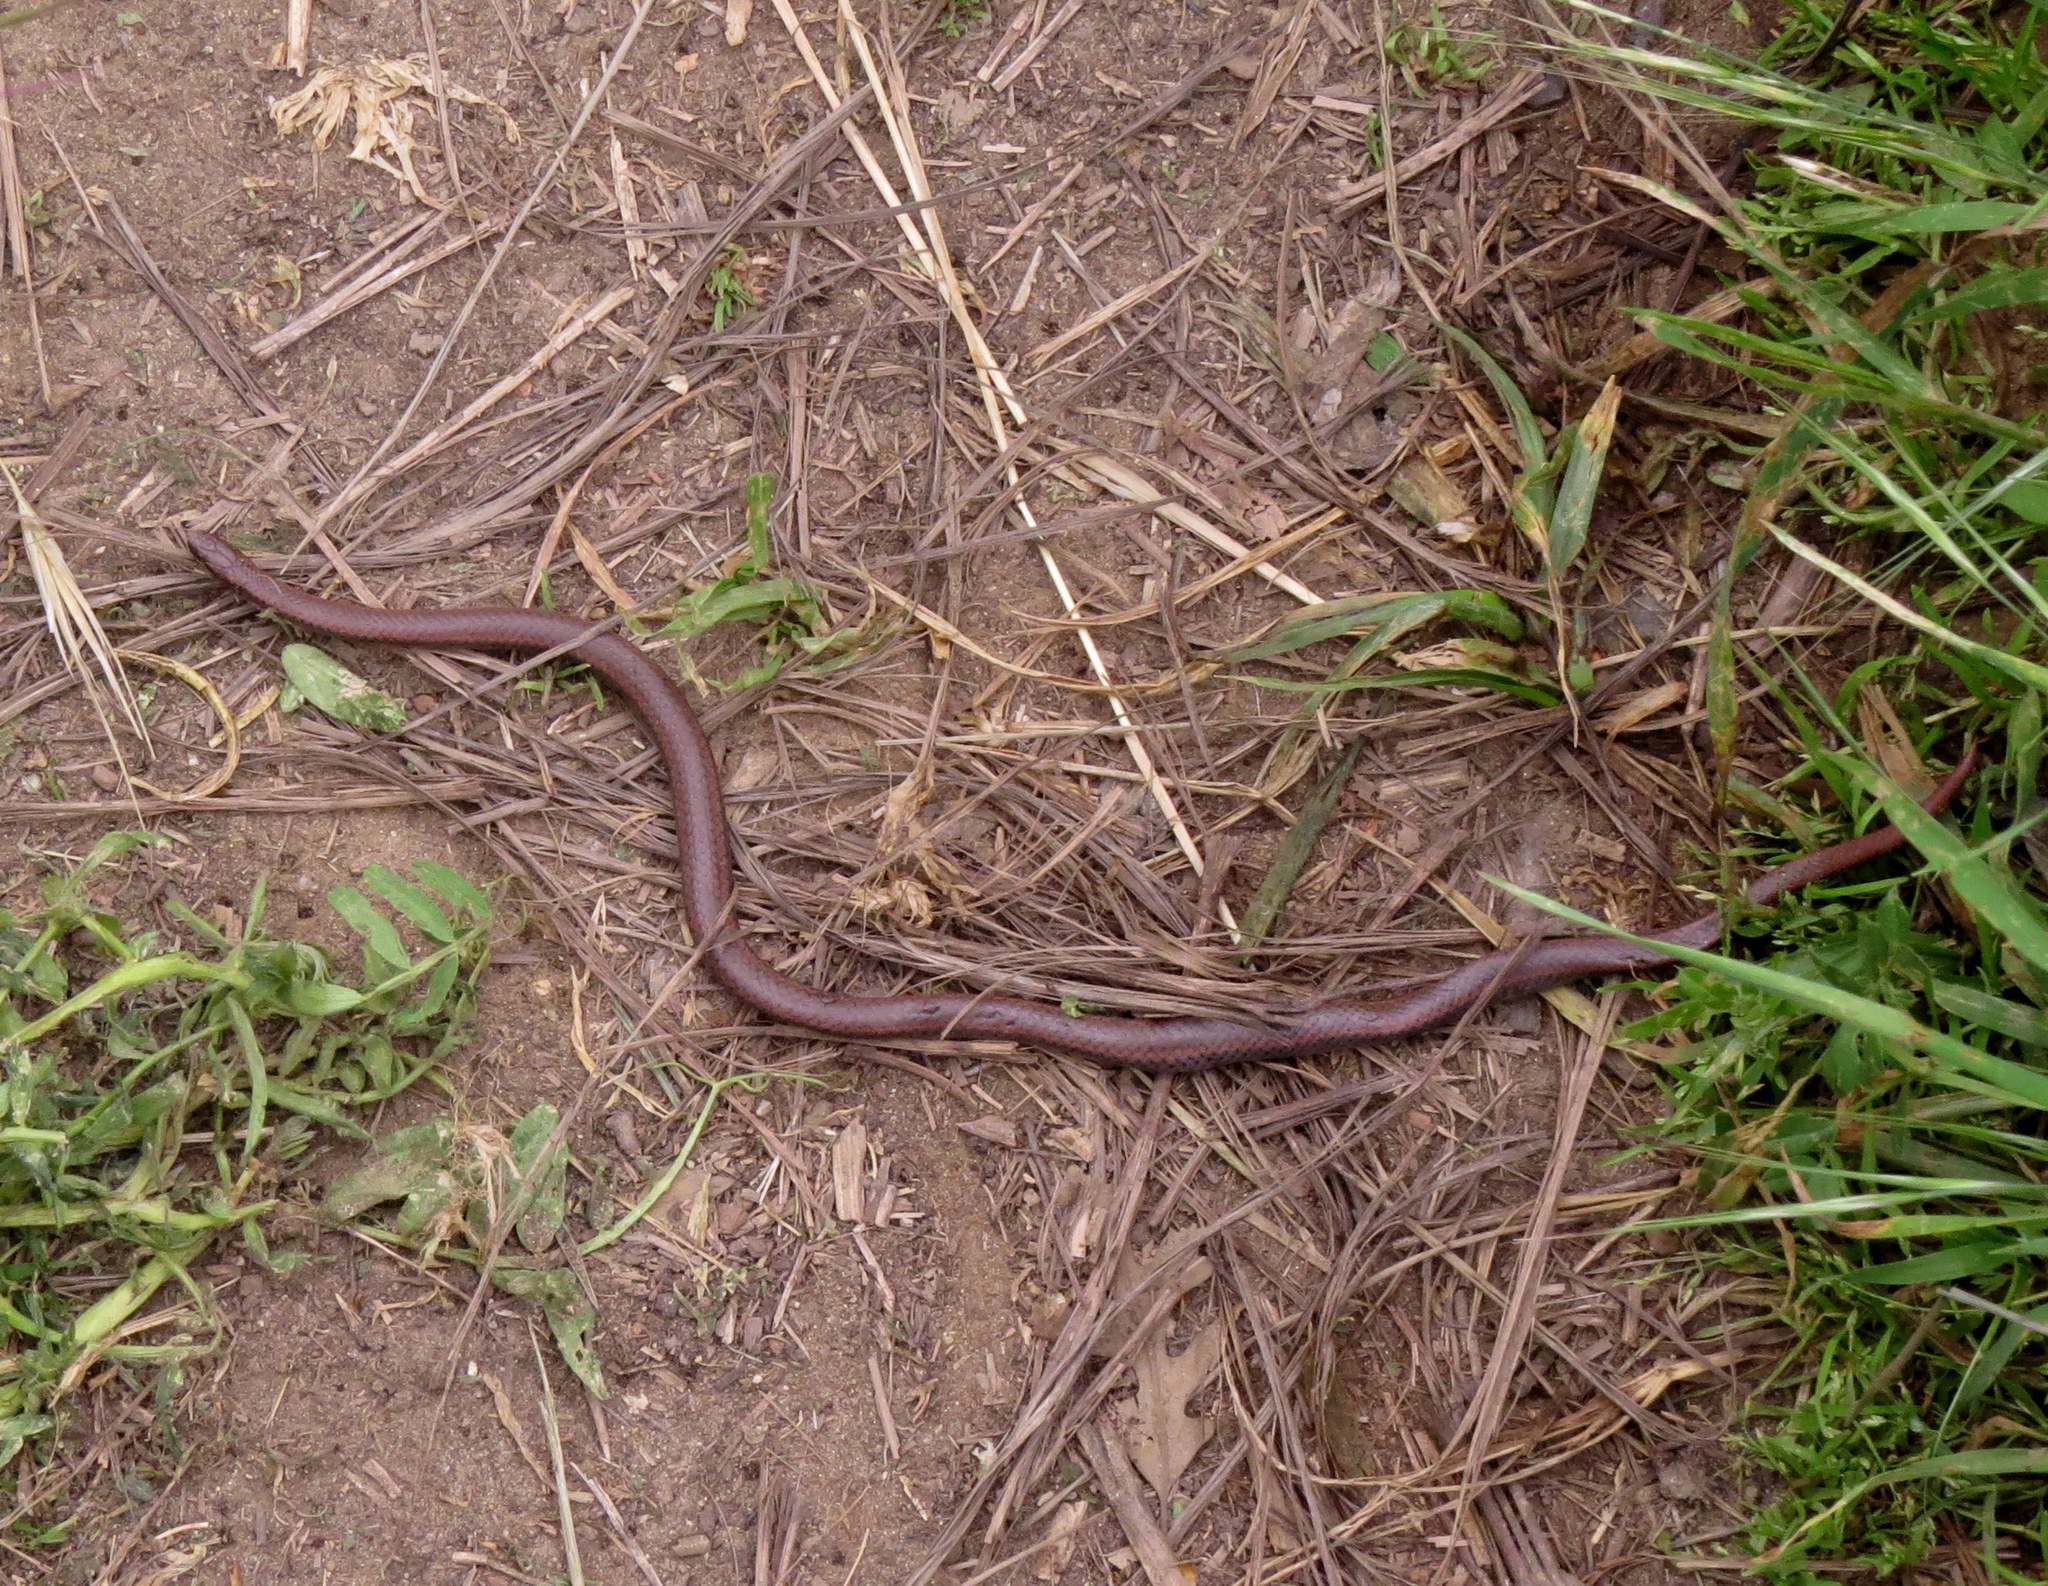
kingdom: Animalia
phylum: Chordata
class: Squamata
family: Colubridae
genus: Contia
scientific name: Contia tenuis
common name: Sharptail snake
